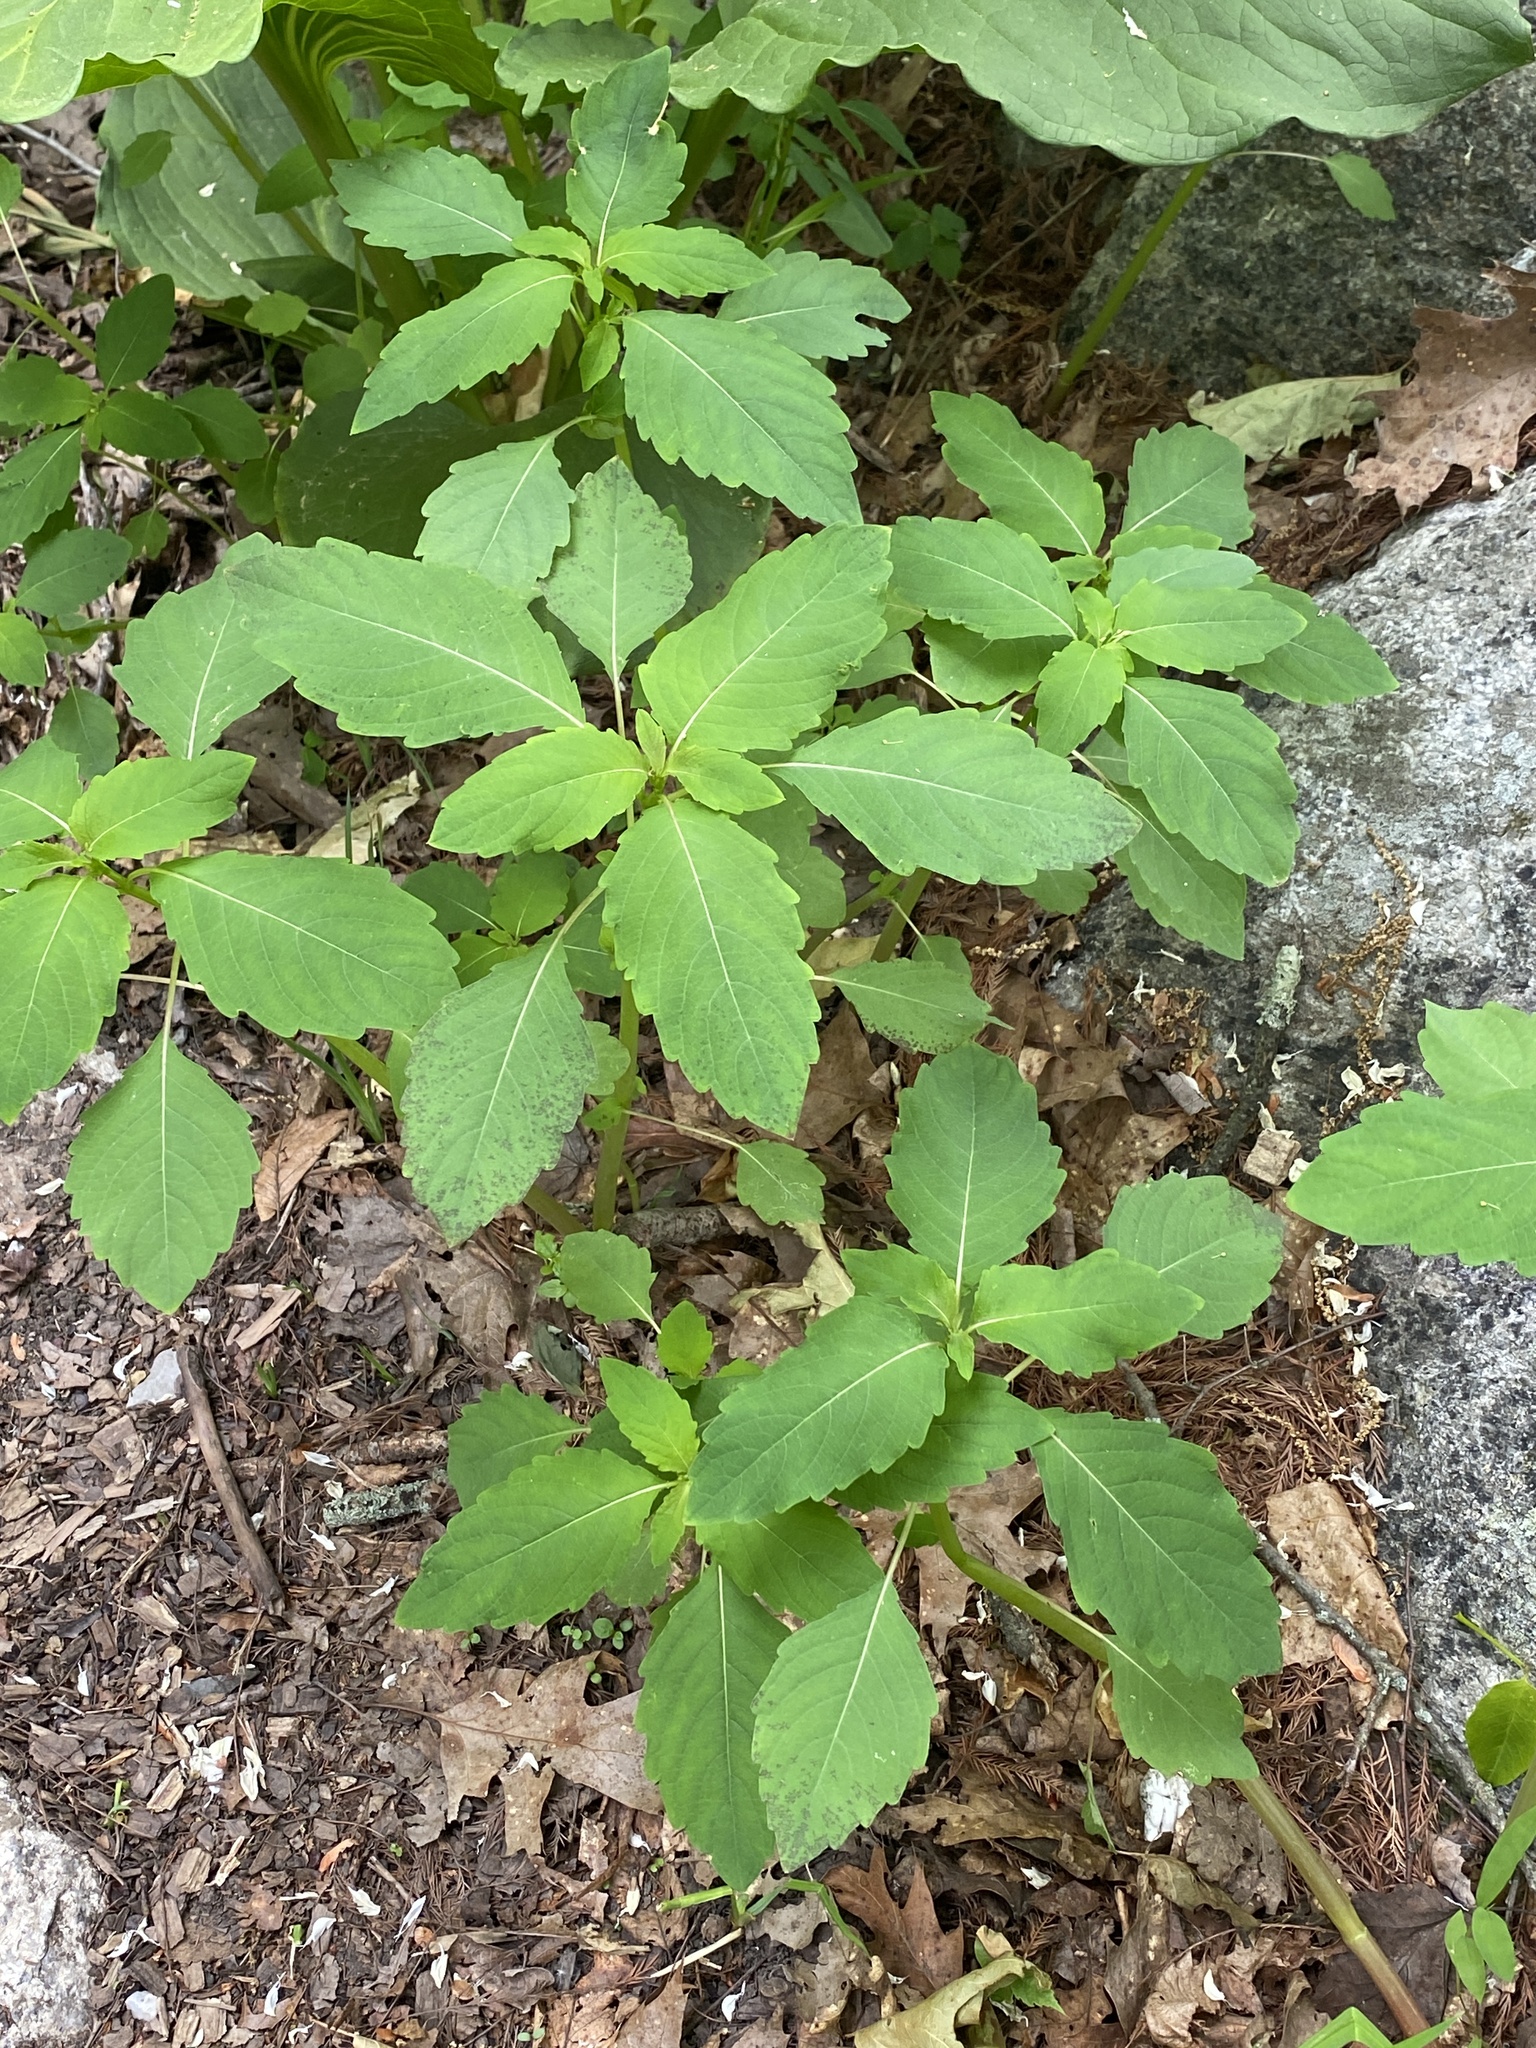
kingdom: Plantae
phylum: Tracheophyta
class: Magnoliopsida
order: Ericales
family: Balsaminaceae
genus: Impatiens
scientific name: Impatiens
